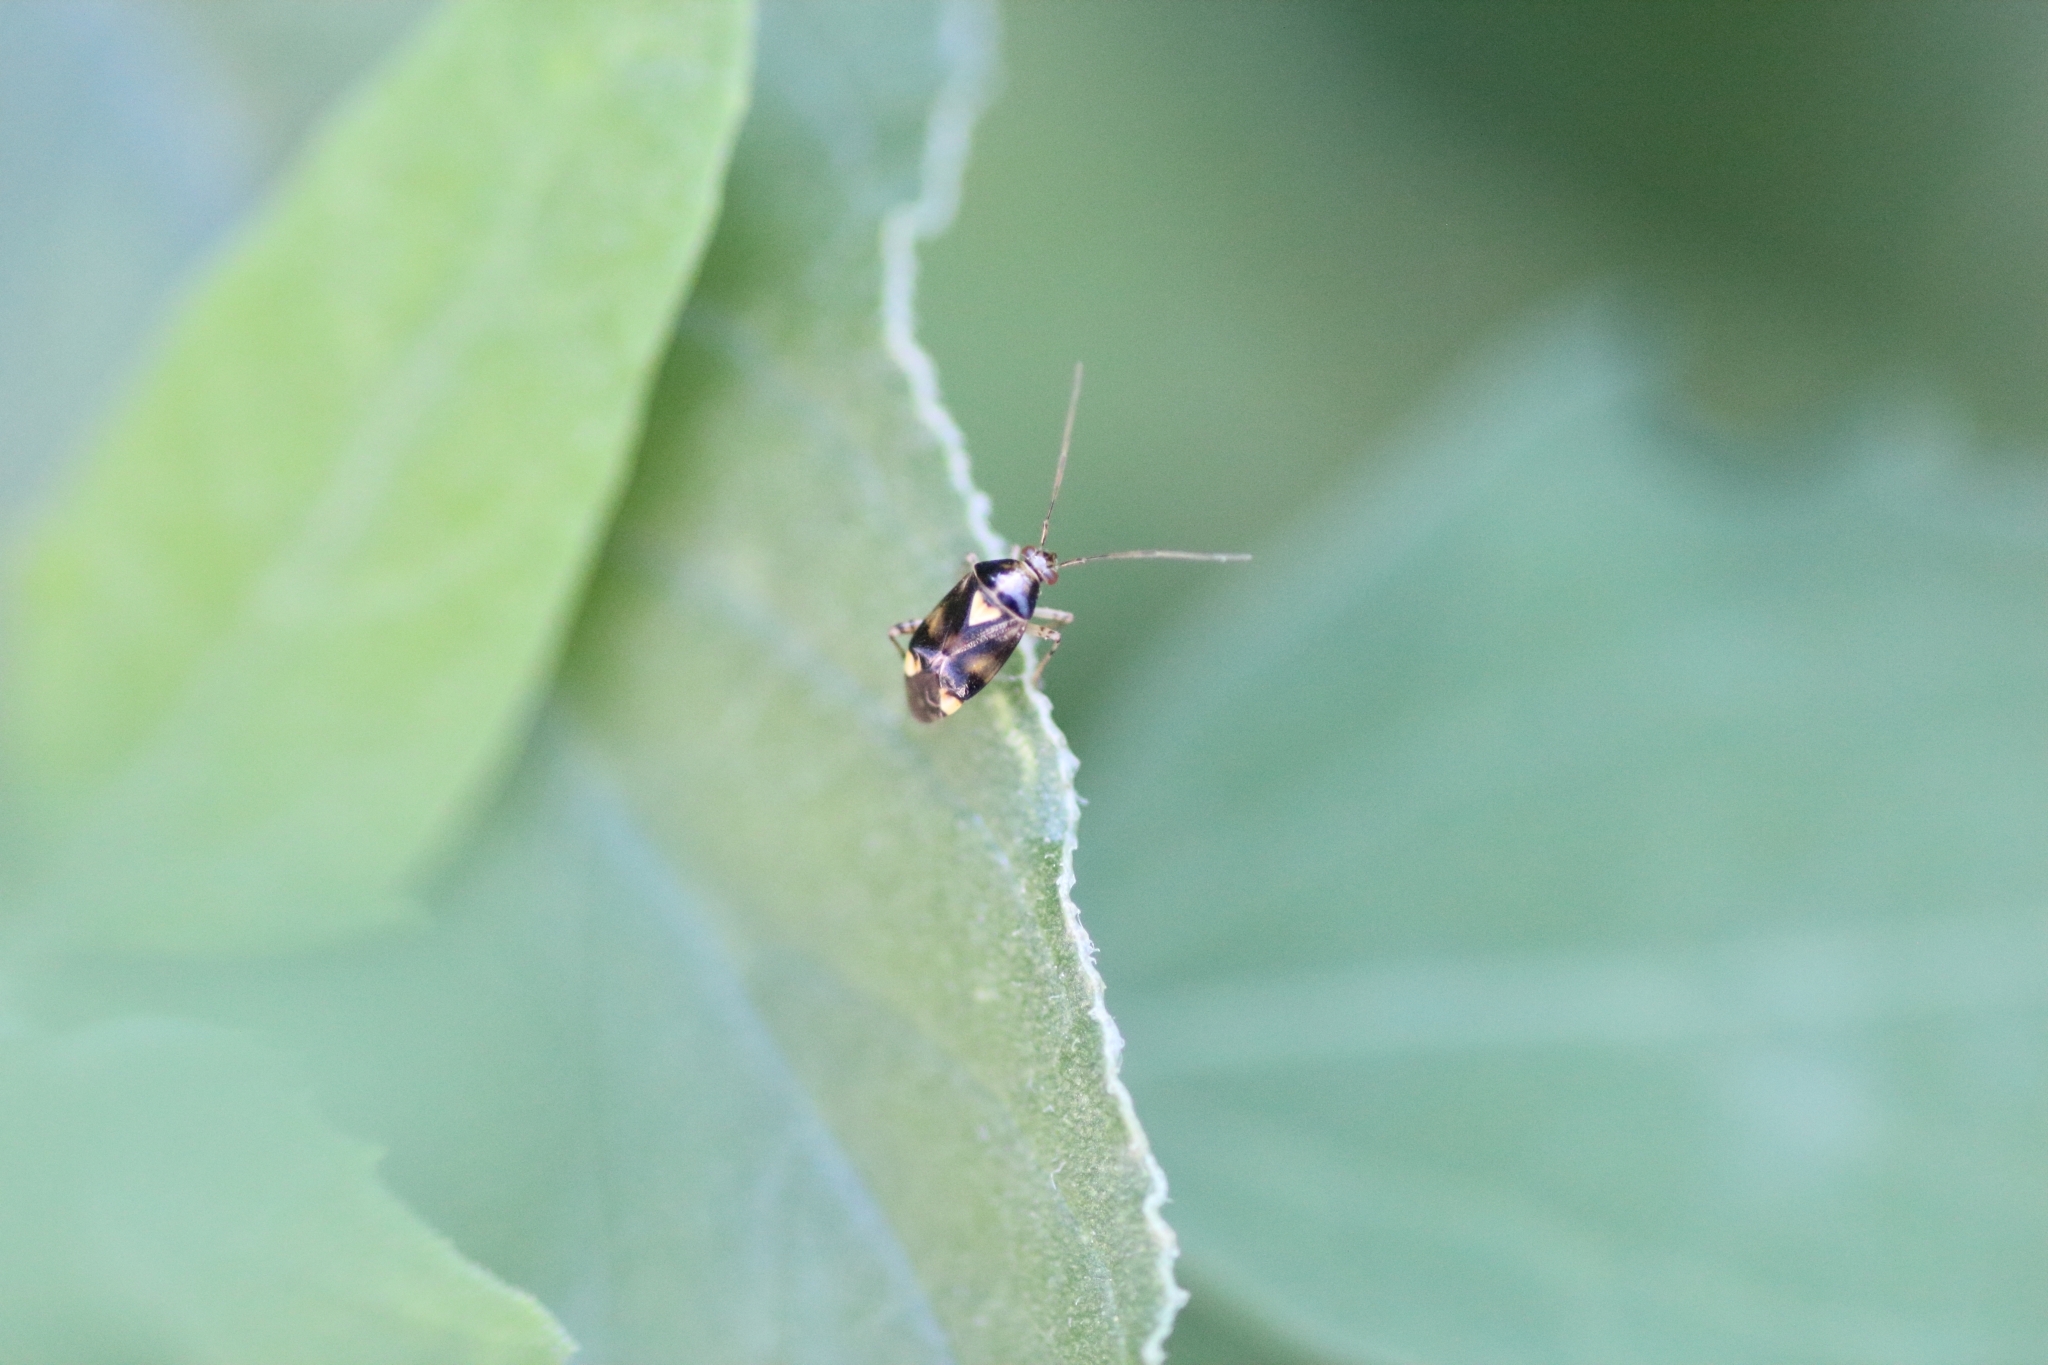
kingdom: Animalia
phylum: Arthropoda
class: Insecta
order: Hemiptera
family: Miridae
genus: Liocoris
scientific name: Liocoris tripustulatus
